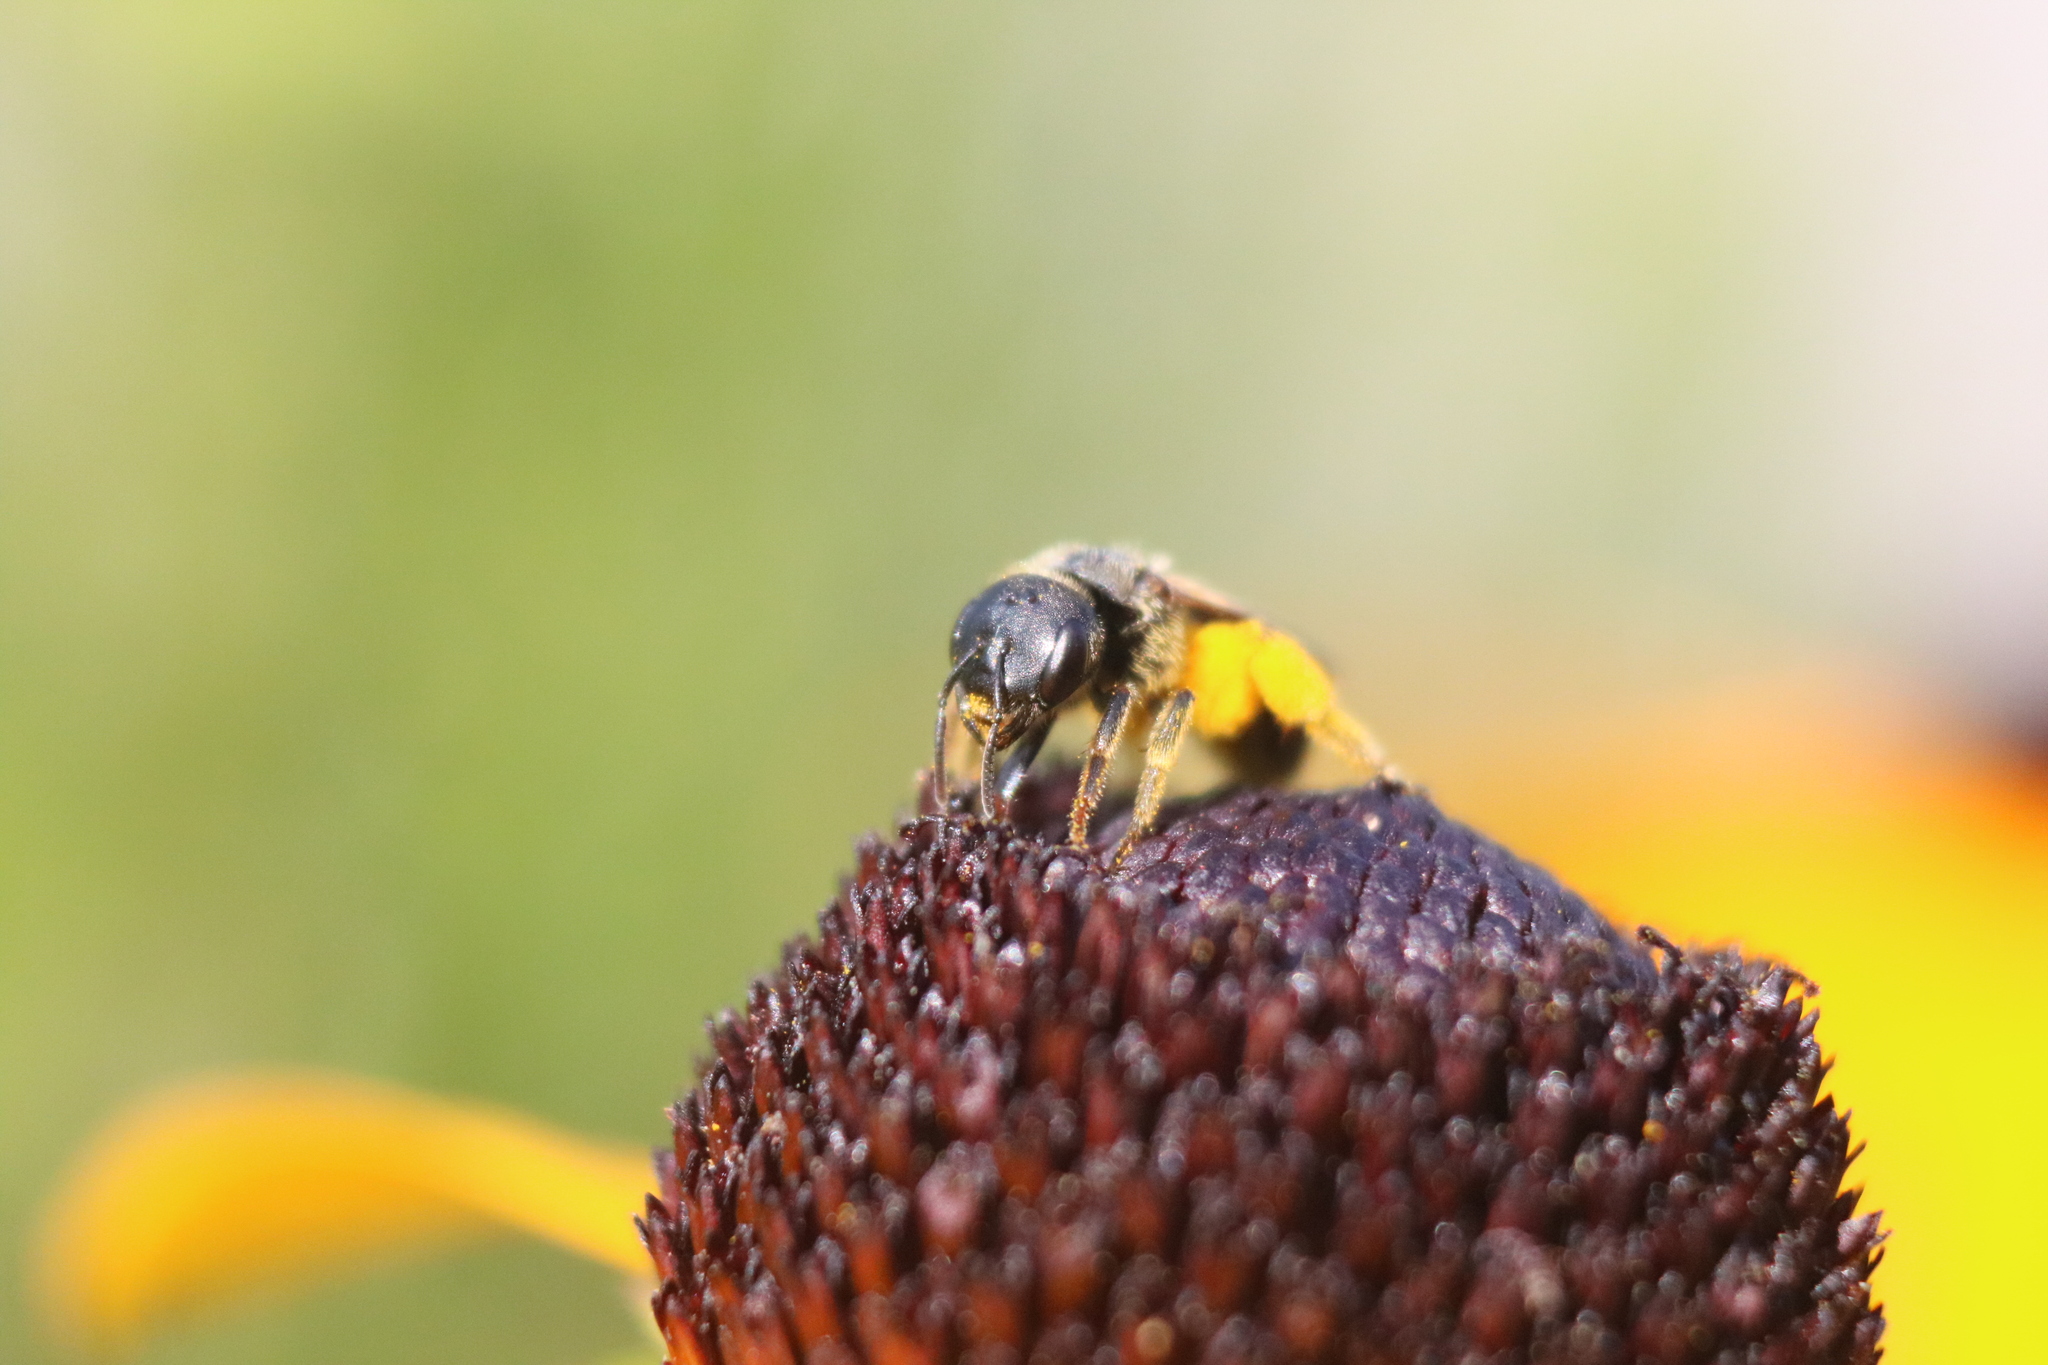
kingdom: Animalia
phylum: Arthropoda
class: Insecta
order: Hymenoptera
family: Halictidae
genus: Halictus
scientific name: Halictus ligatus
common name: Ligated furrow bee
